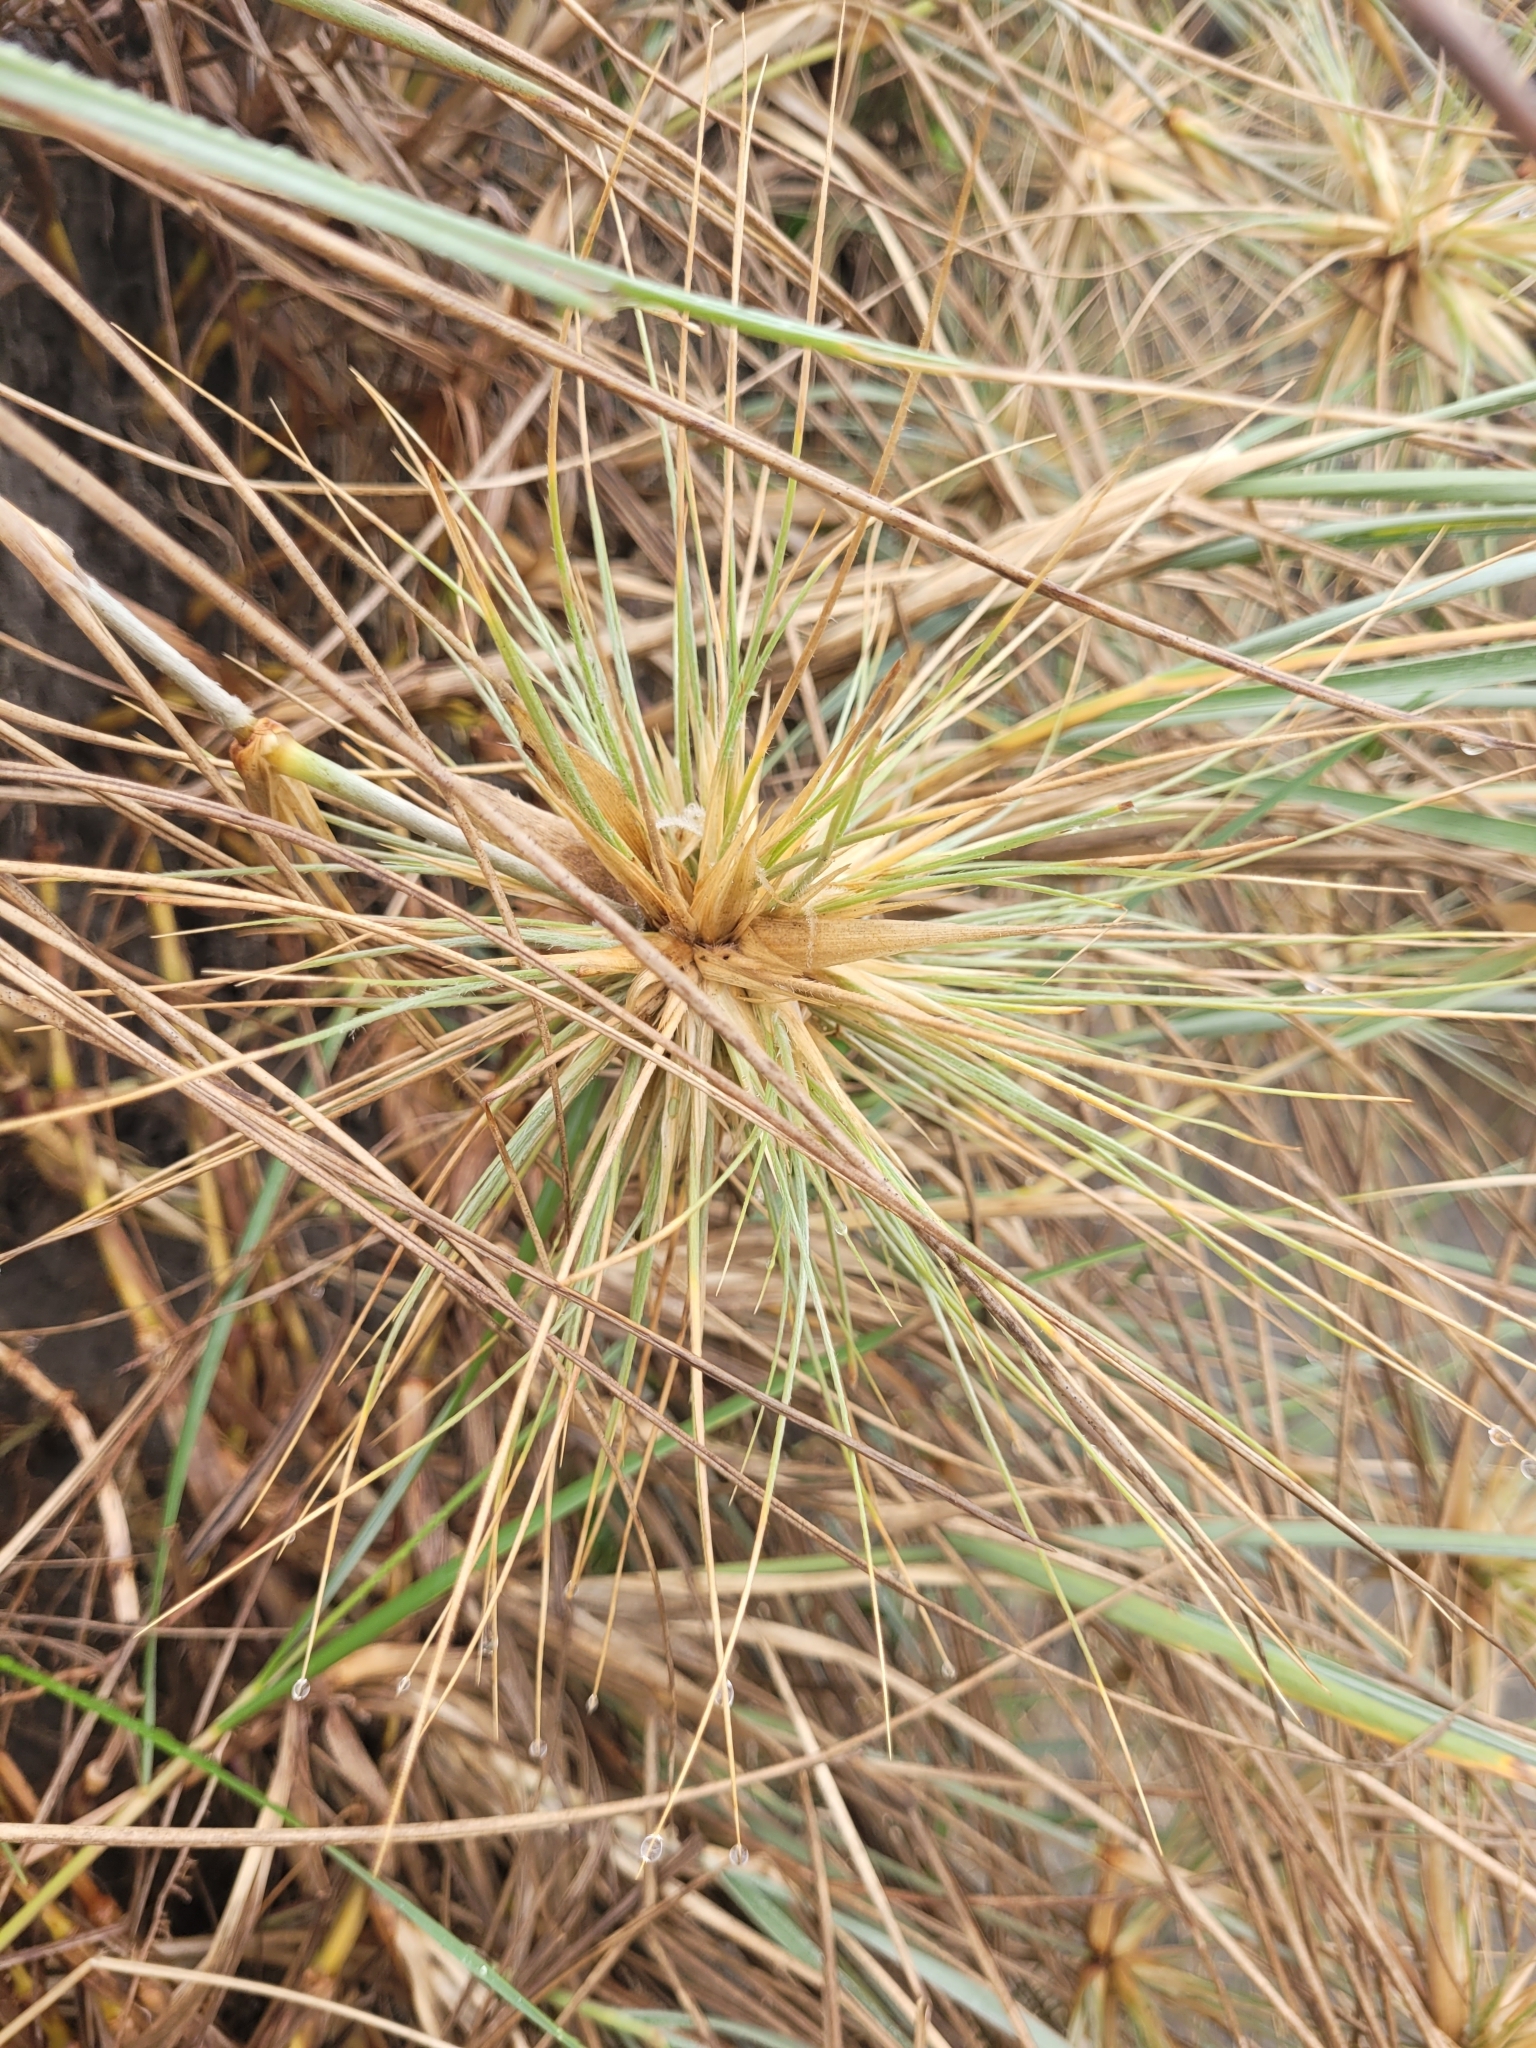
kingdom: Plantae
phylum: Tracheophyta
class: Liliopsida
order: Poales
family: Poaceae
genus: Spinifex
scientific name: Spinifex sericeus
